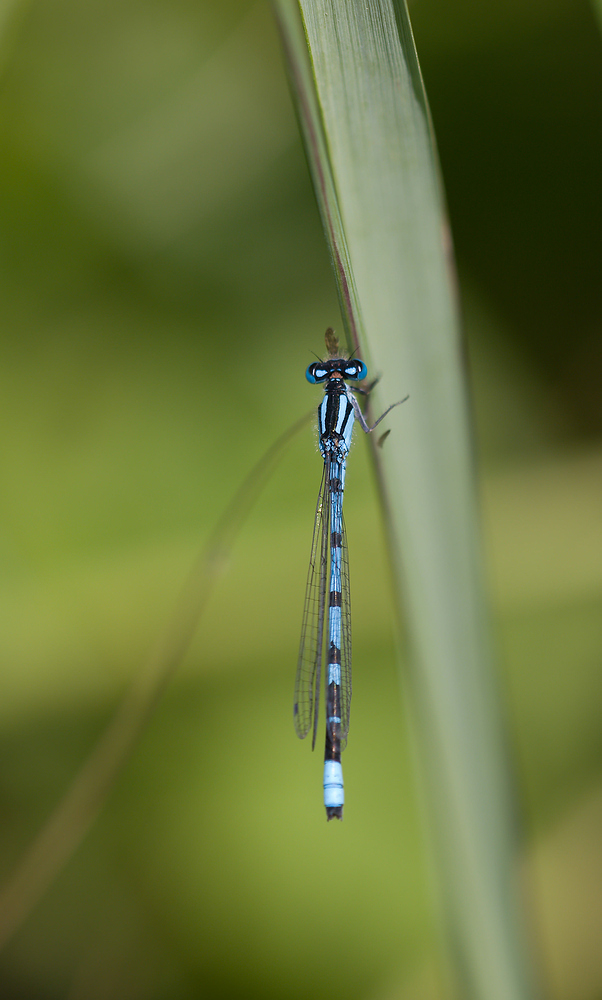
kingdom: Animalia
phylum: Arthropoda
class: Insecta
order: Odonata
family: Coenagrionidae
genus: Enallagma
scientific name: Enallagma cyathigerum
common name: Common blue damselfly
